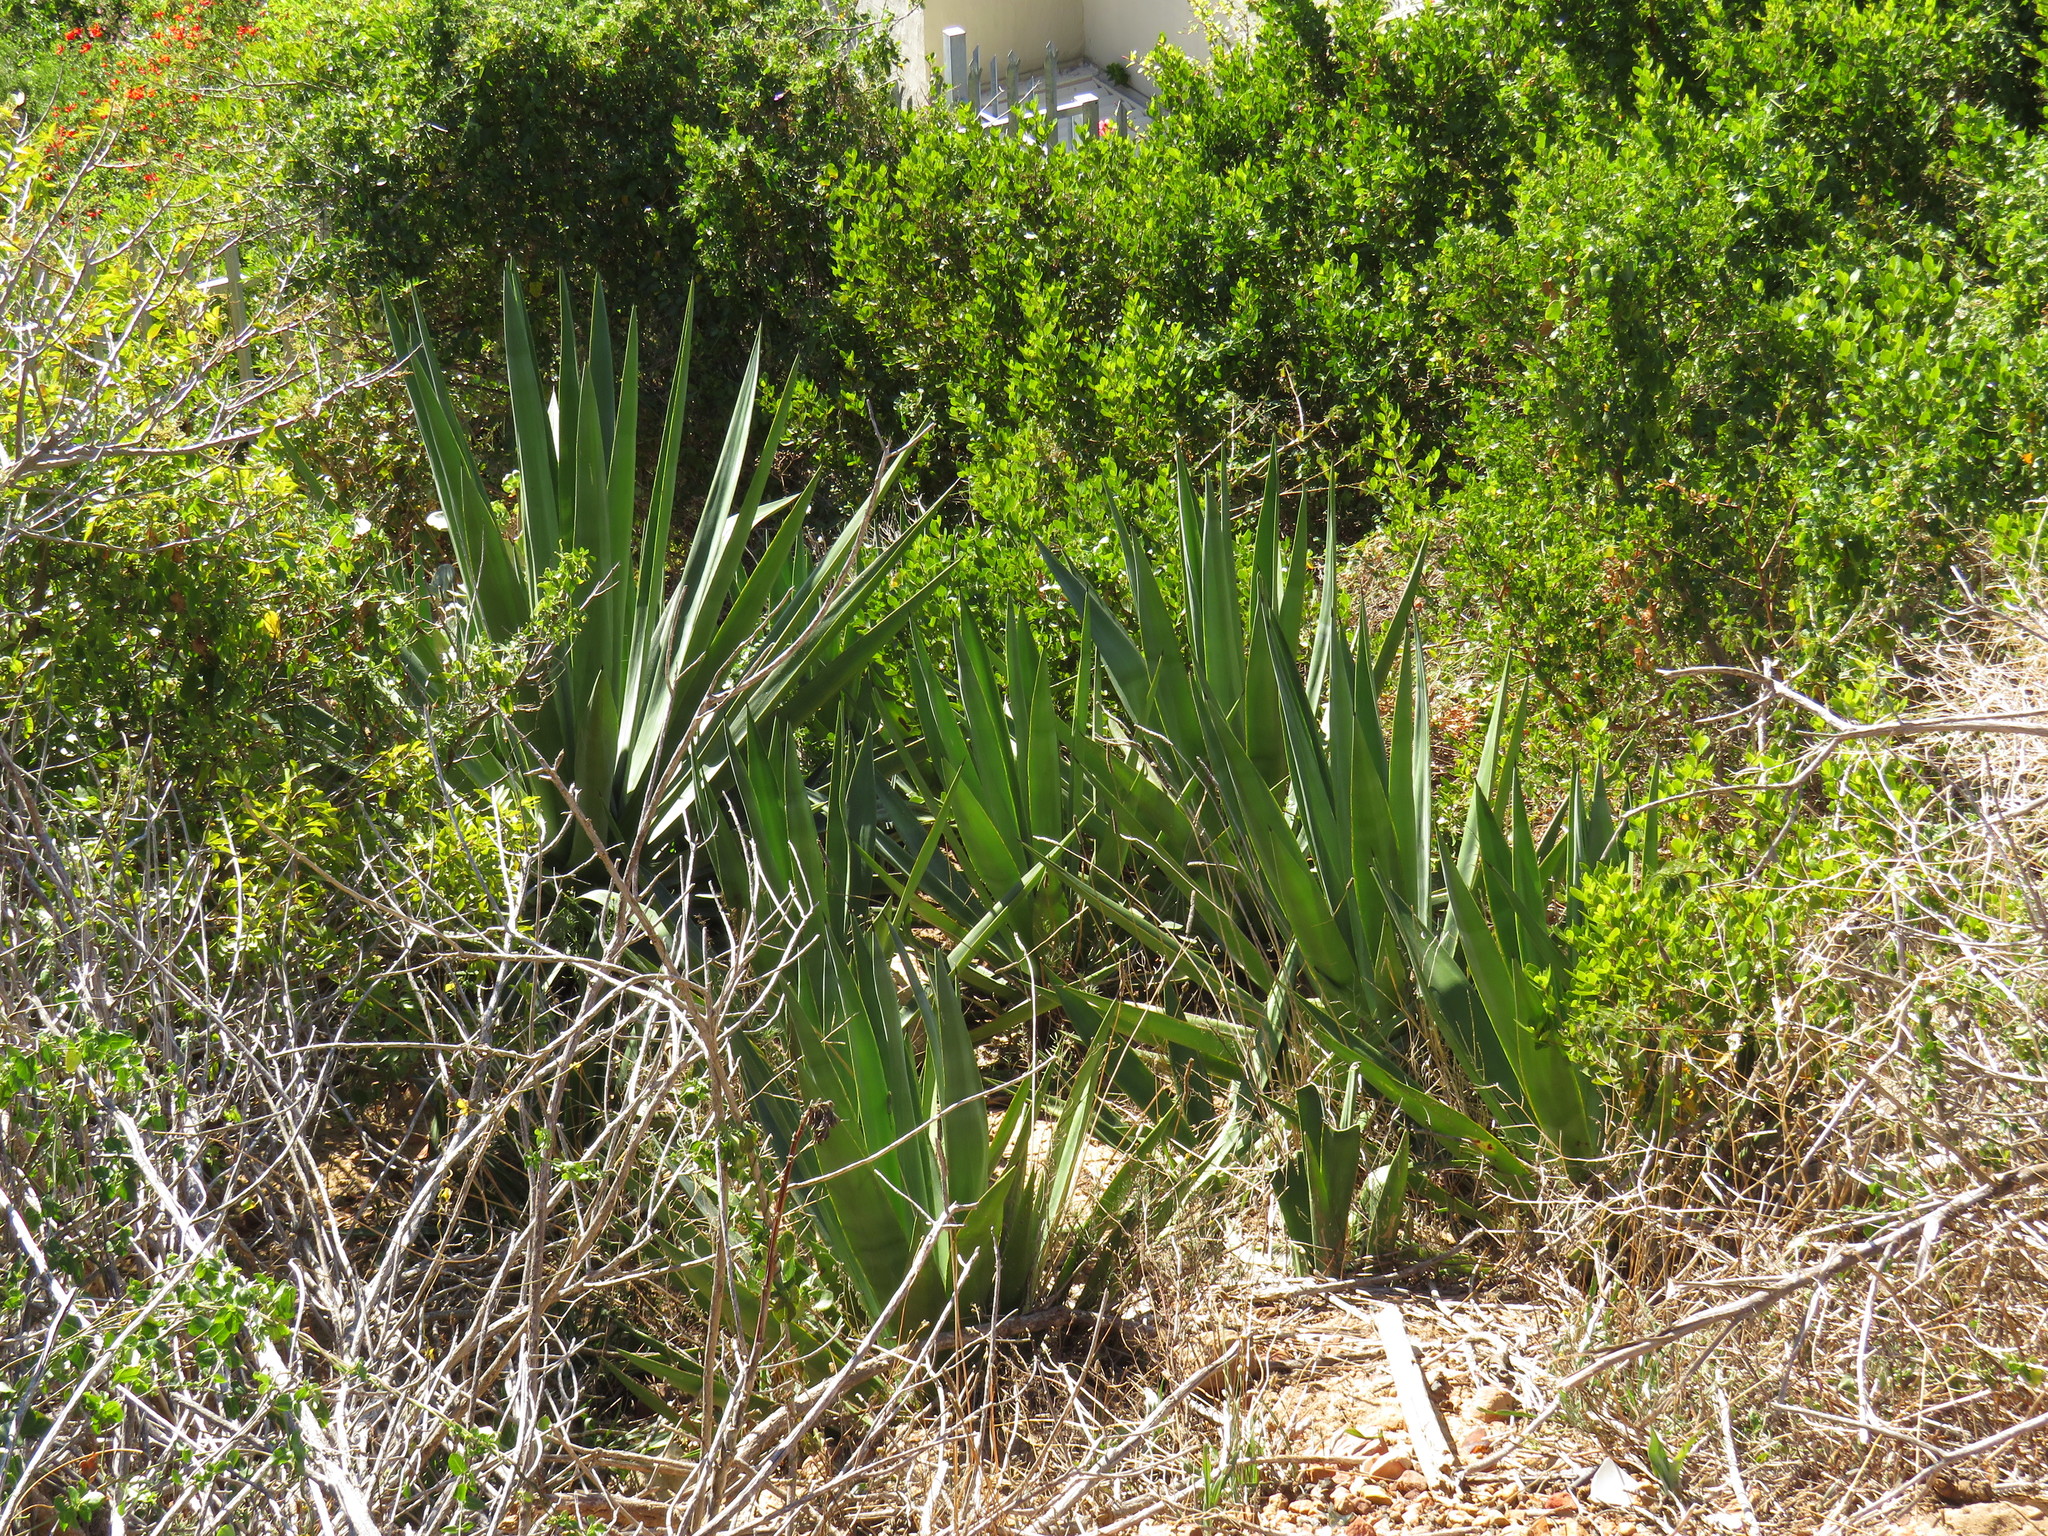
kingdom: Plantae
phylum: Tracheophyta
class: Liliopsida
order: Asparagales
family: Asparagaceae
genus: Agave
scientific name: Agave sisalana
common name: Sisal hemp
